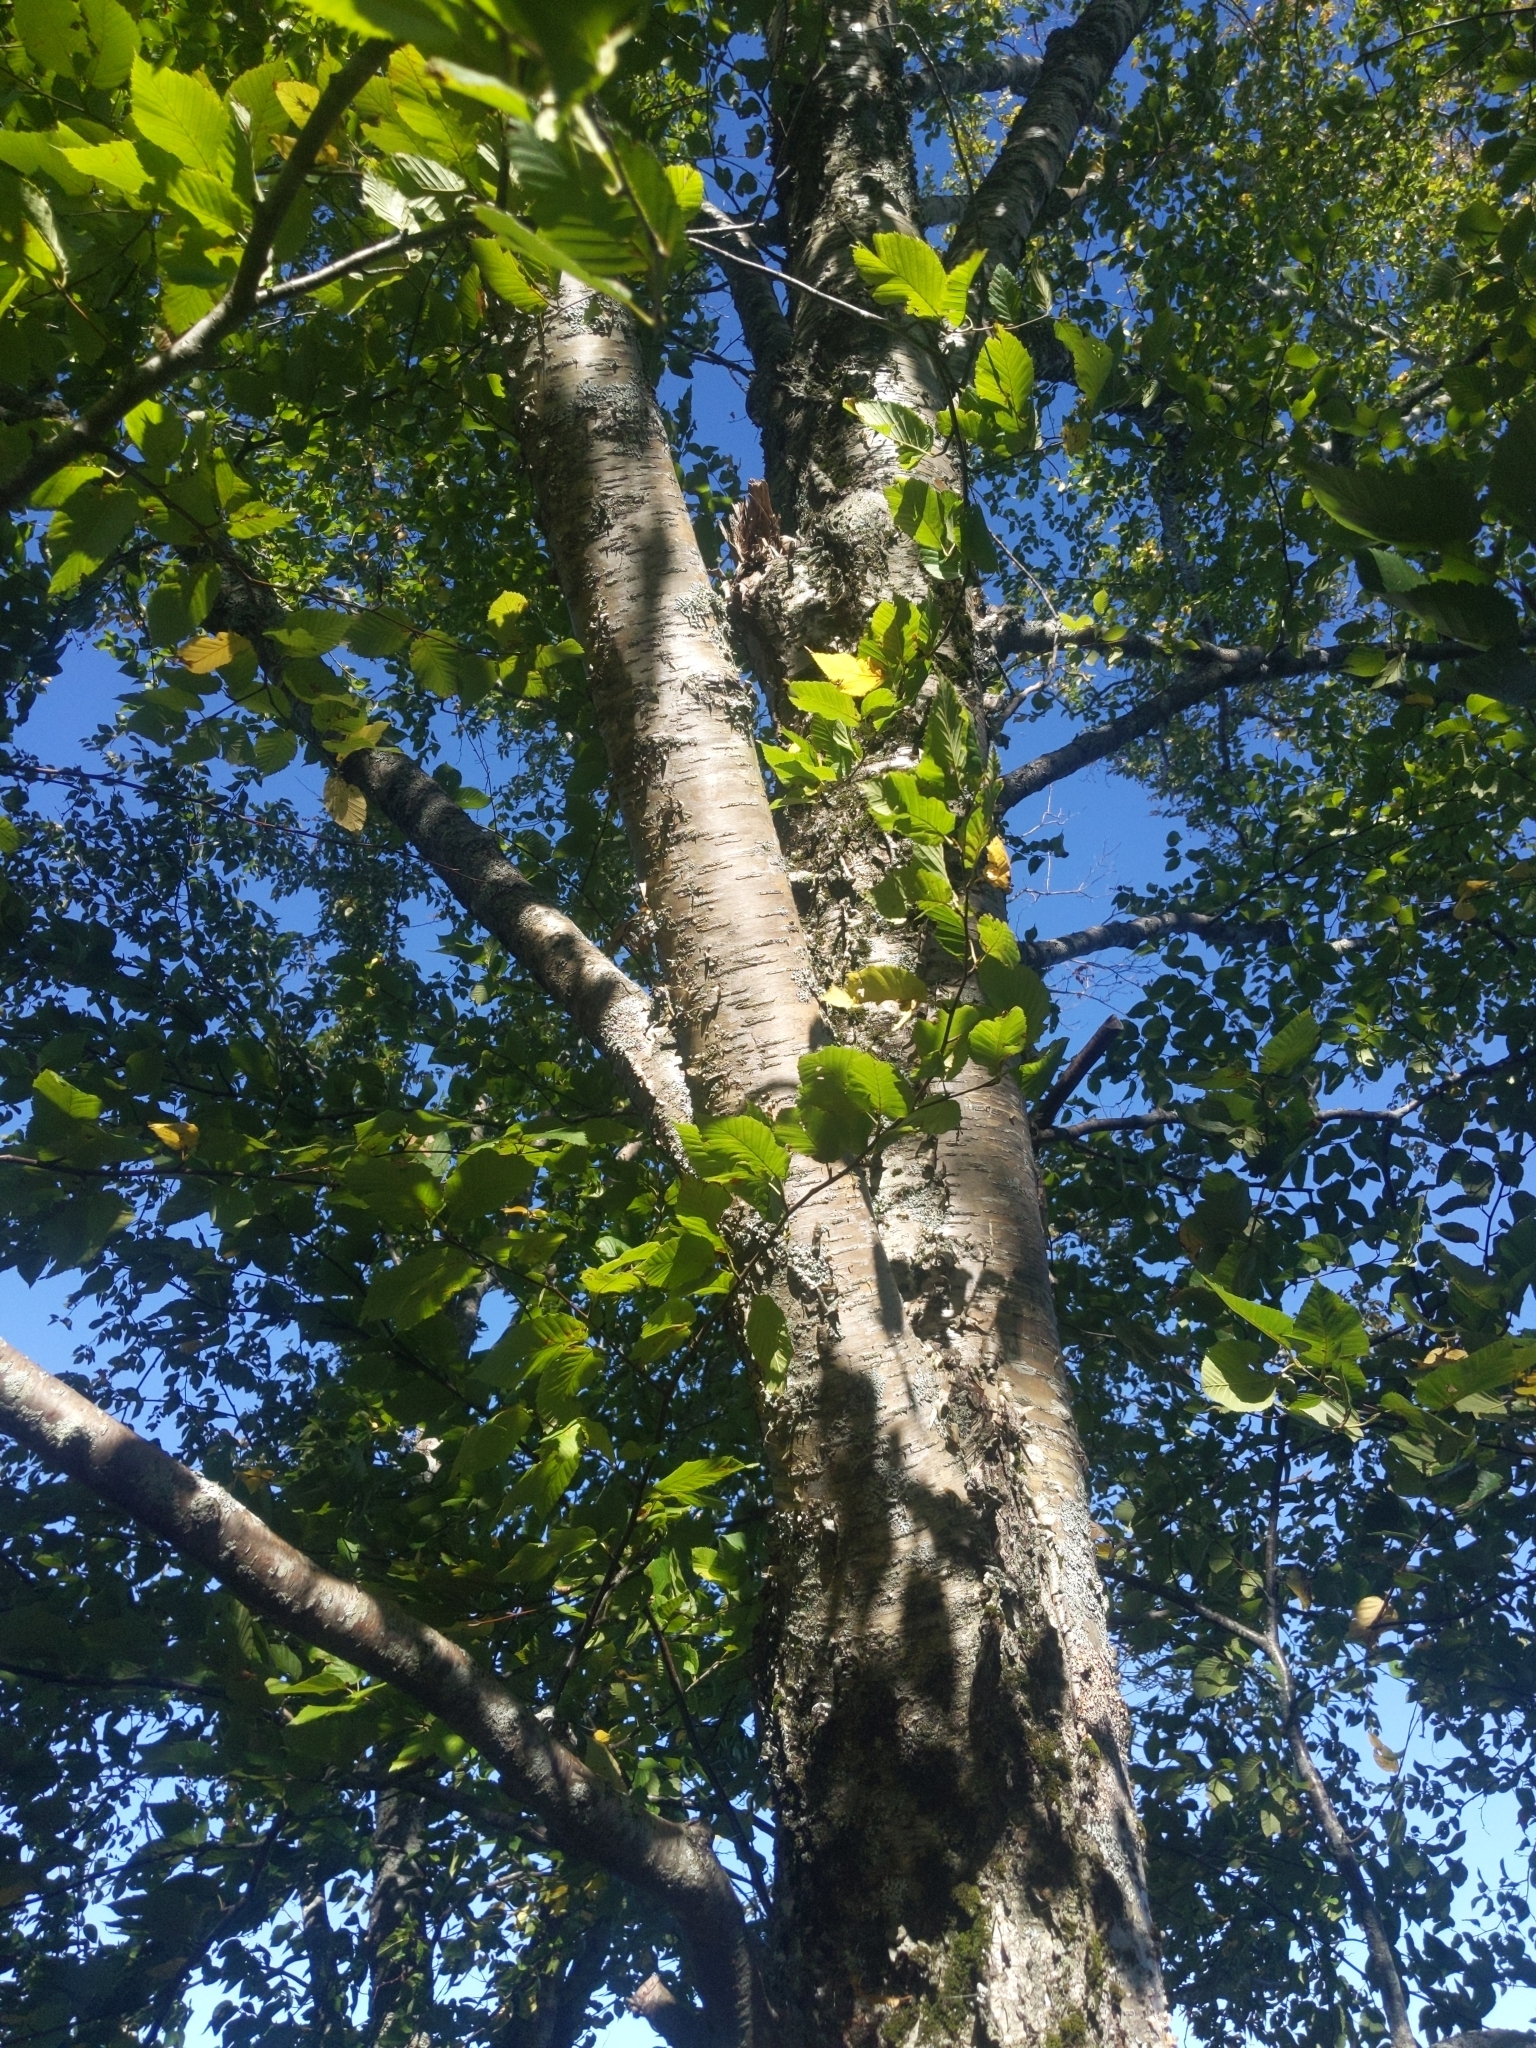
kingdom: Plantae
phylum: Tracheophyta
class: Magnoliopsida
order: Fagales
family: Betulaceae
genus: Betula
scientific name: Betula alleghaniensis
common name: Yellow birch
